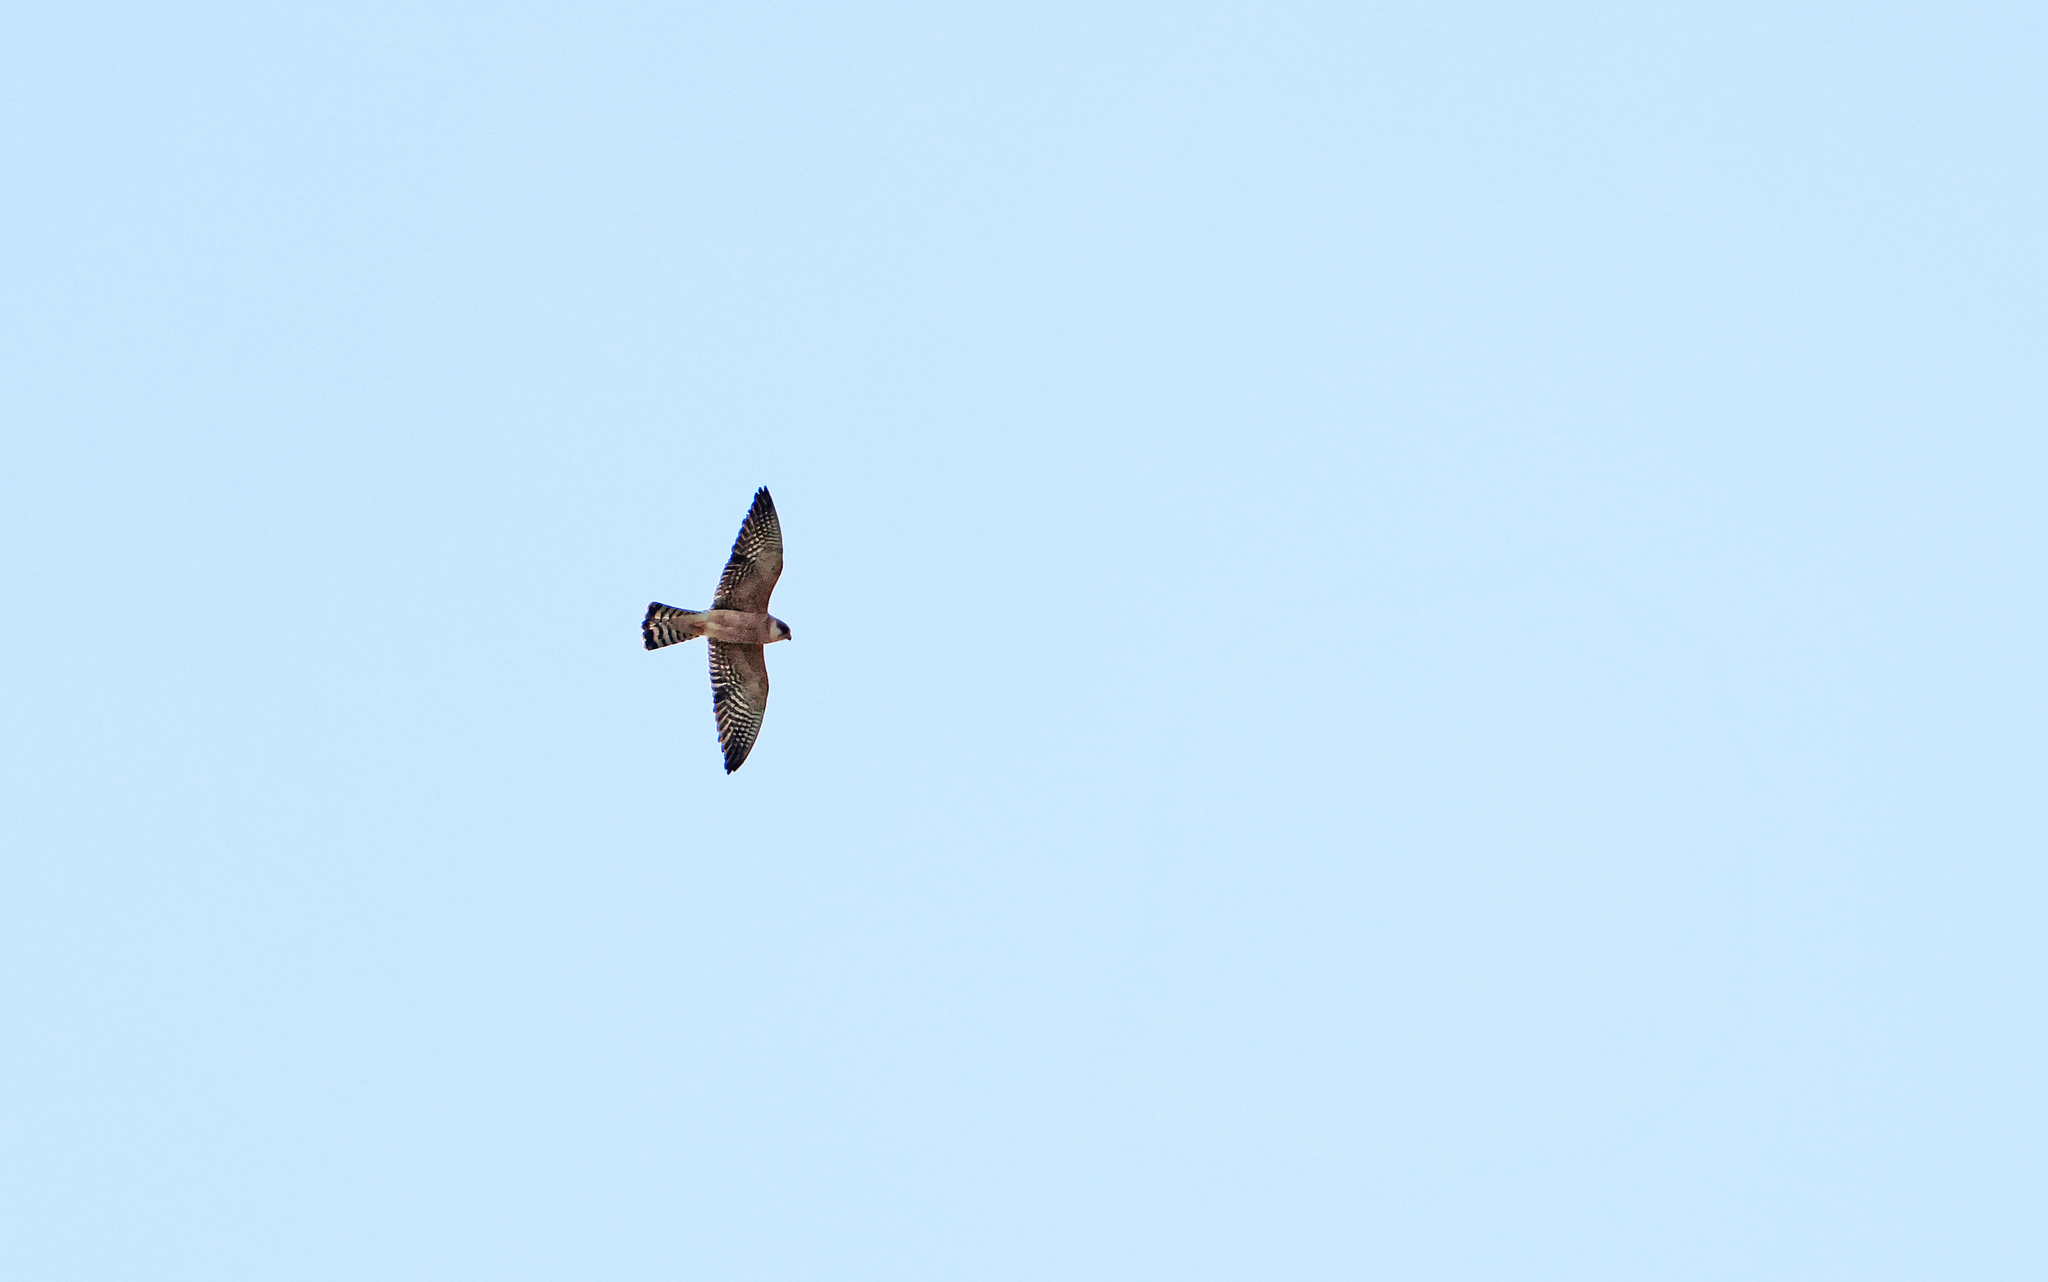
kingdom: Animalia
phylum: Chordata
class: Aves
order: Falconiformes
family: Falconidae
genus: Falco
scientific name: Falco vespertinus
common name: Red-footed falcon
